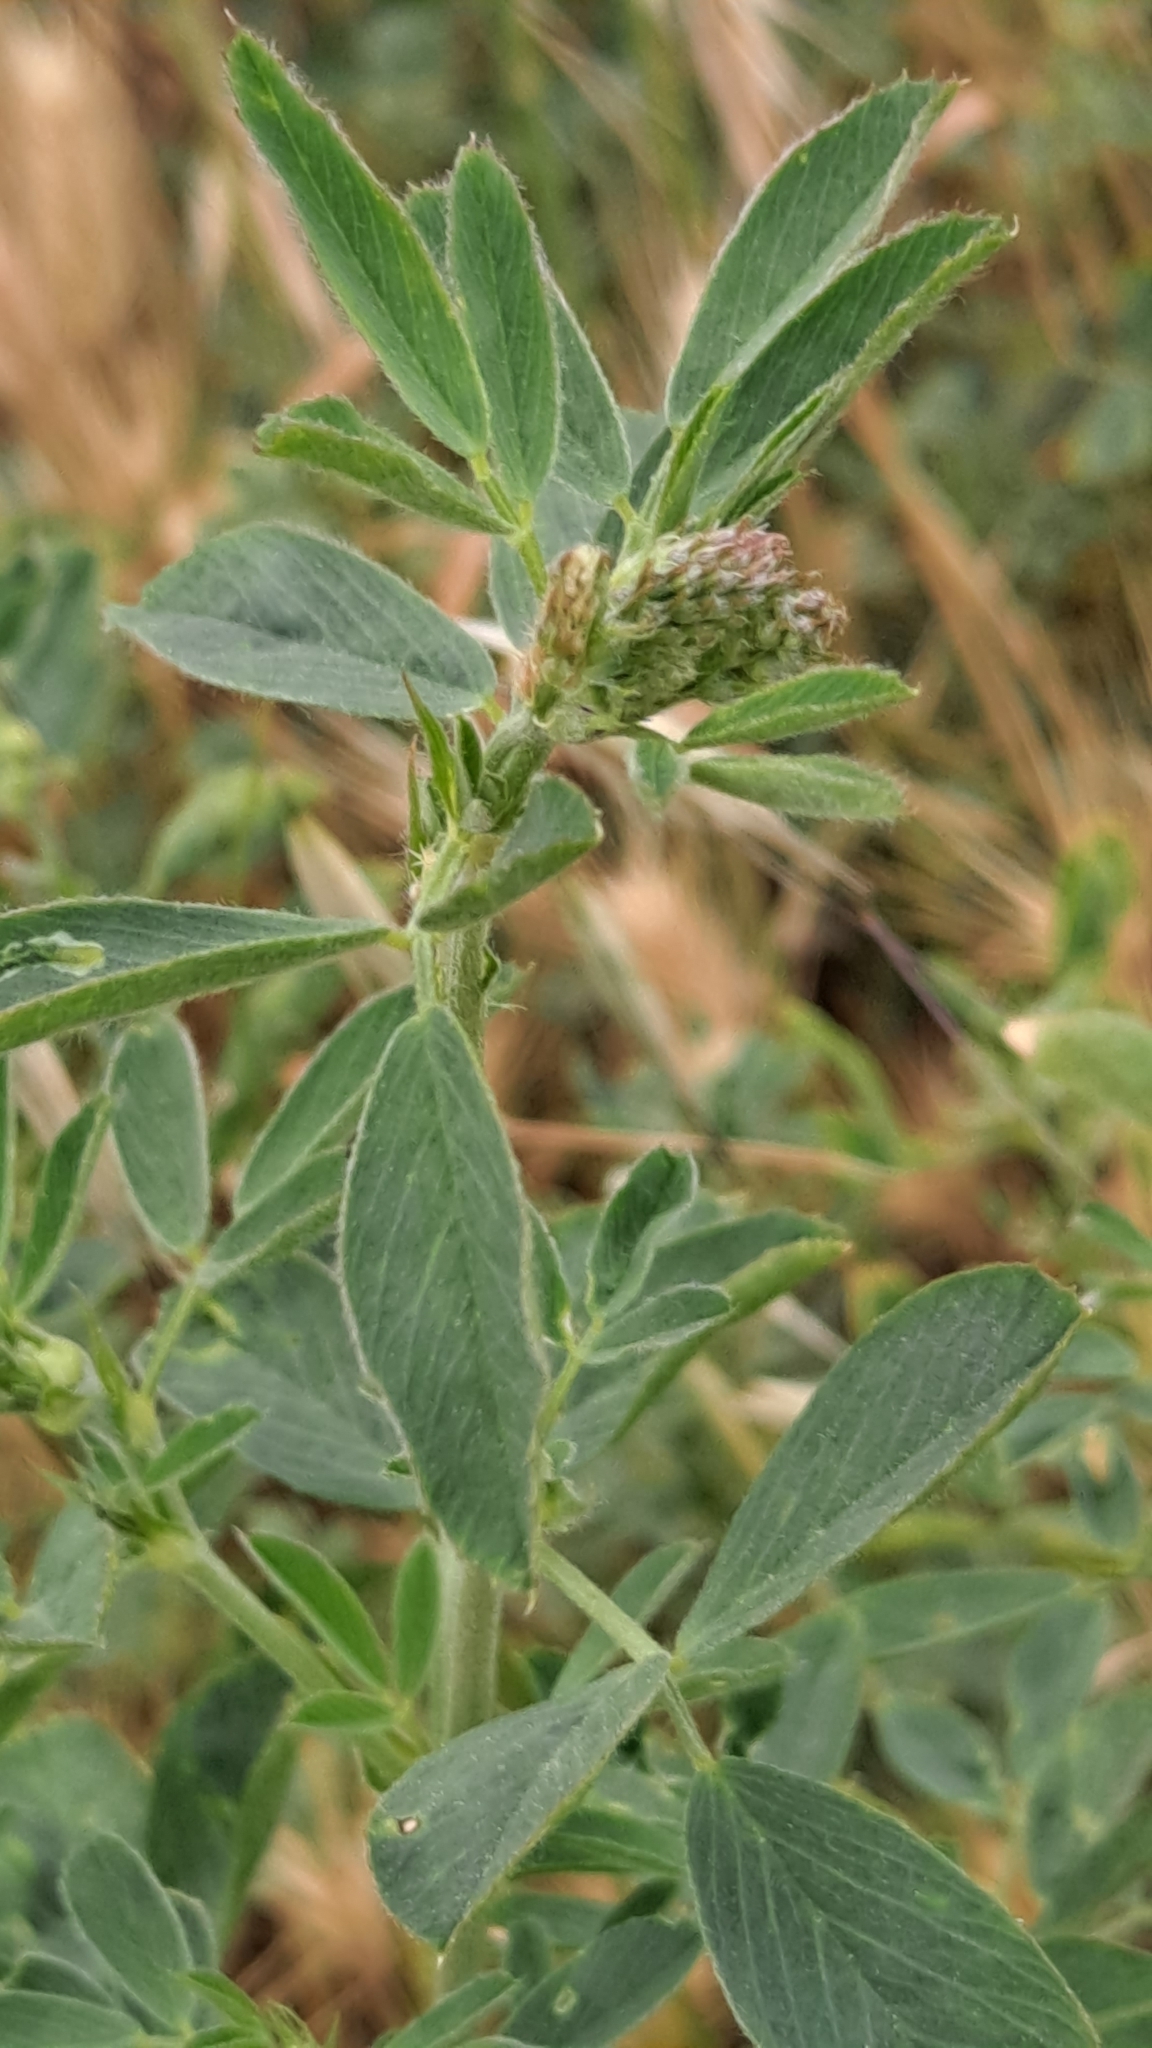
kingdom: Plantae
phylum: Tracheophyta
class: Magnoliopsida
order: Fabales
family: Fabaceae
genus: Medicago
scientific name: Medicago sativa
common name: Alfalfa
